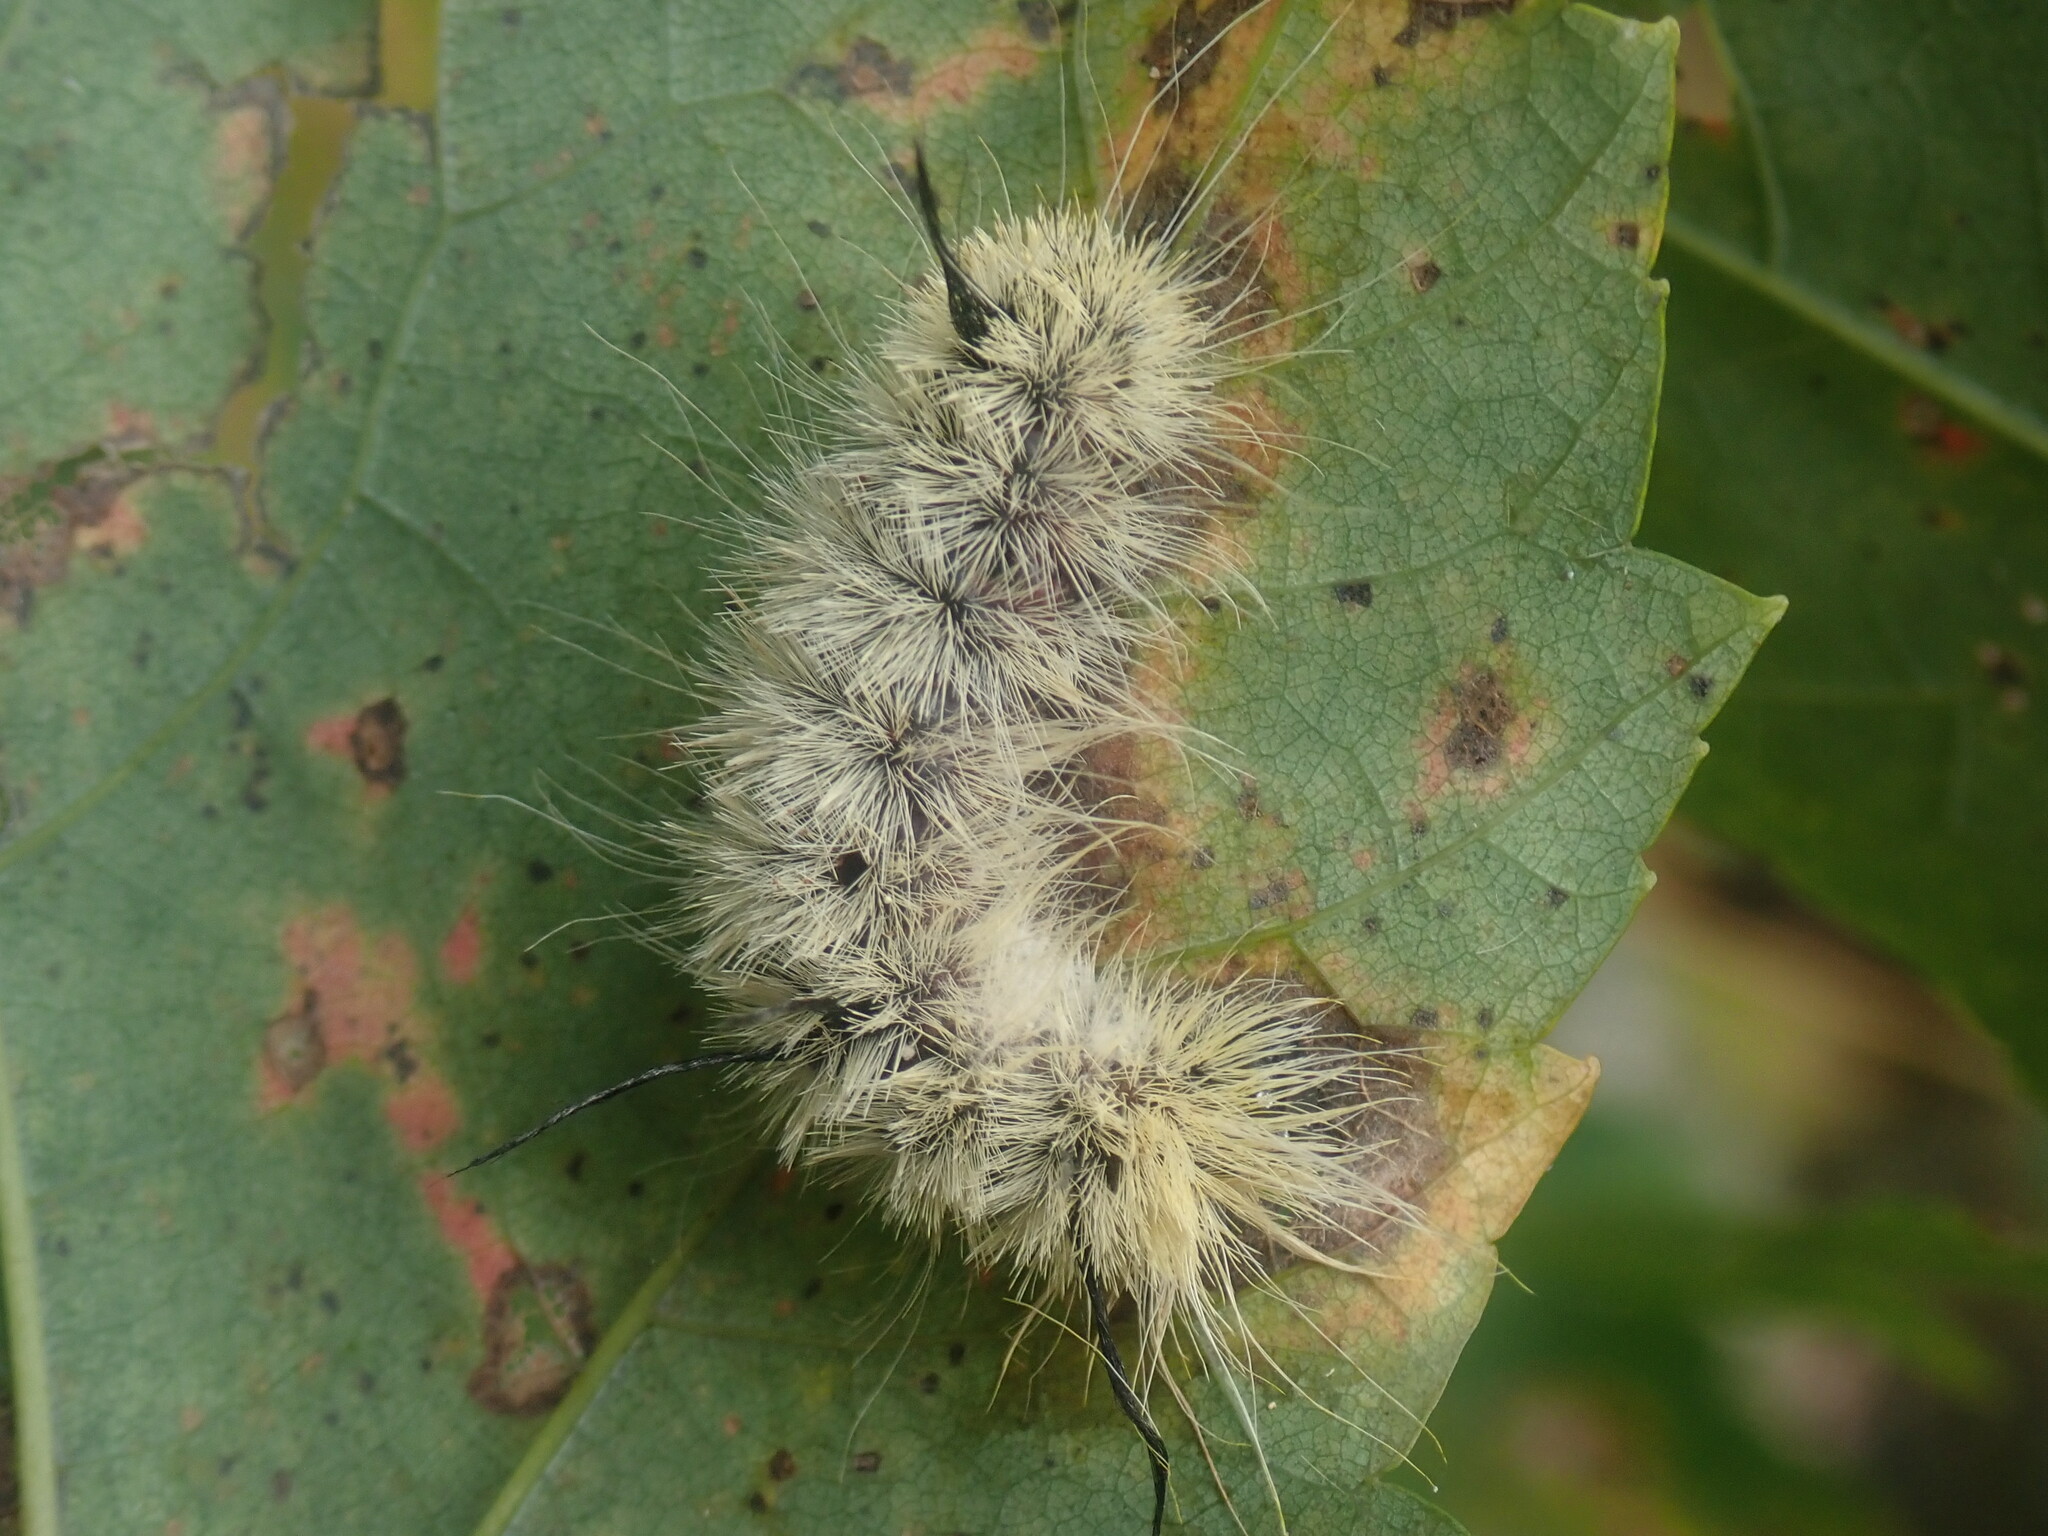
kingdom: Animalia
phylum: Arthropoda
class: Insecta
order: Lepidoptera
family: Noctuidae
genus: Acronicta
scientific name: Acronicta americana
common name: American dagger
